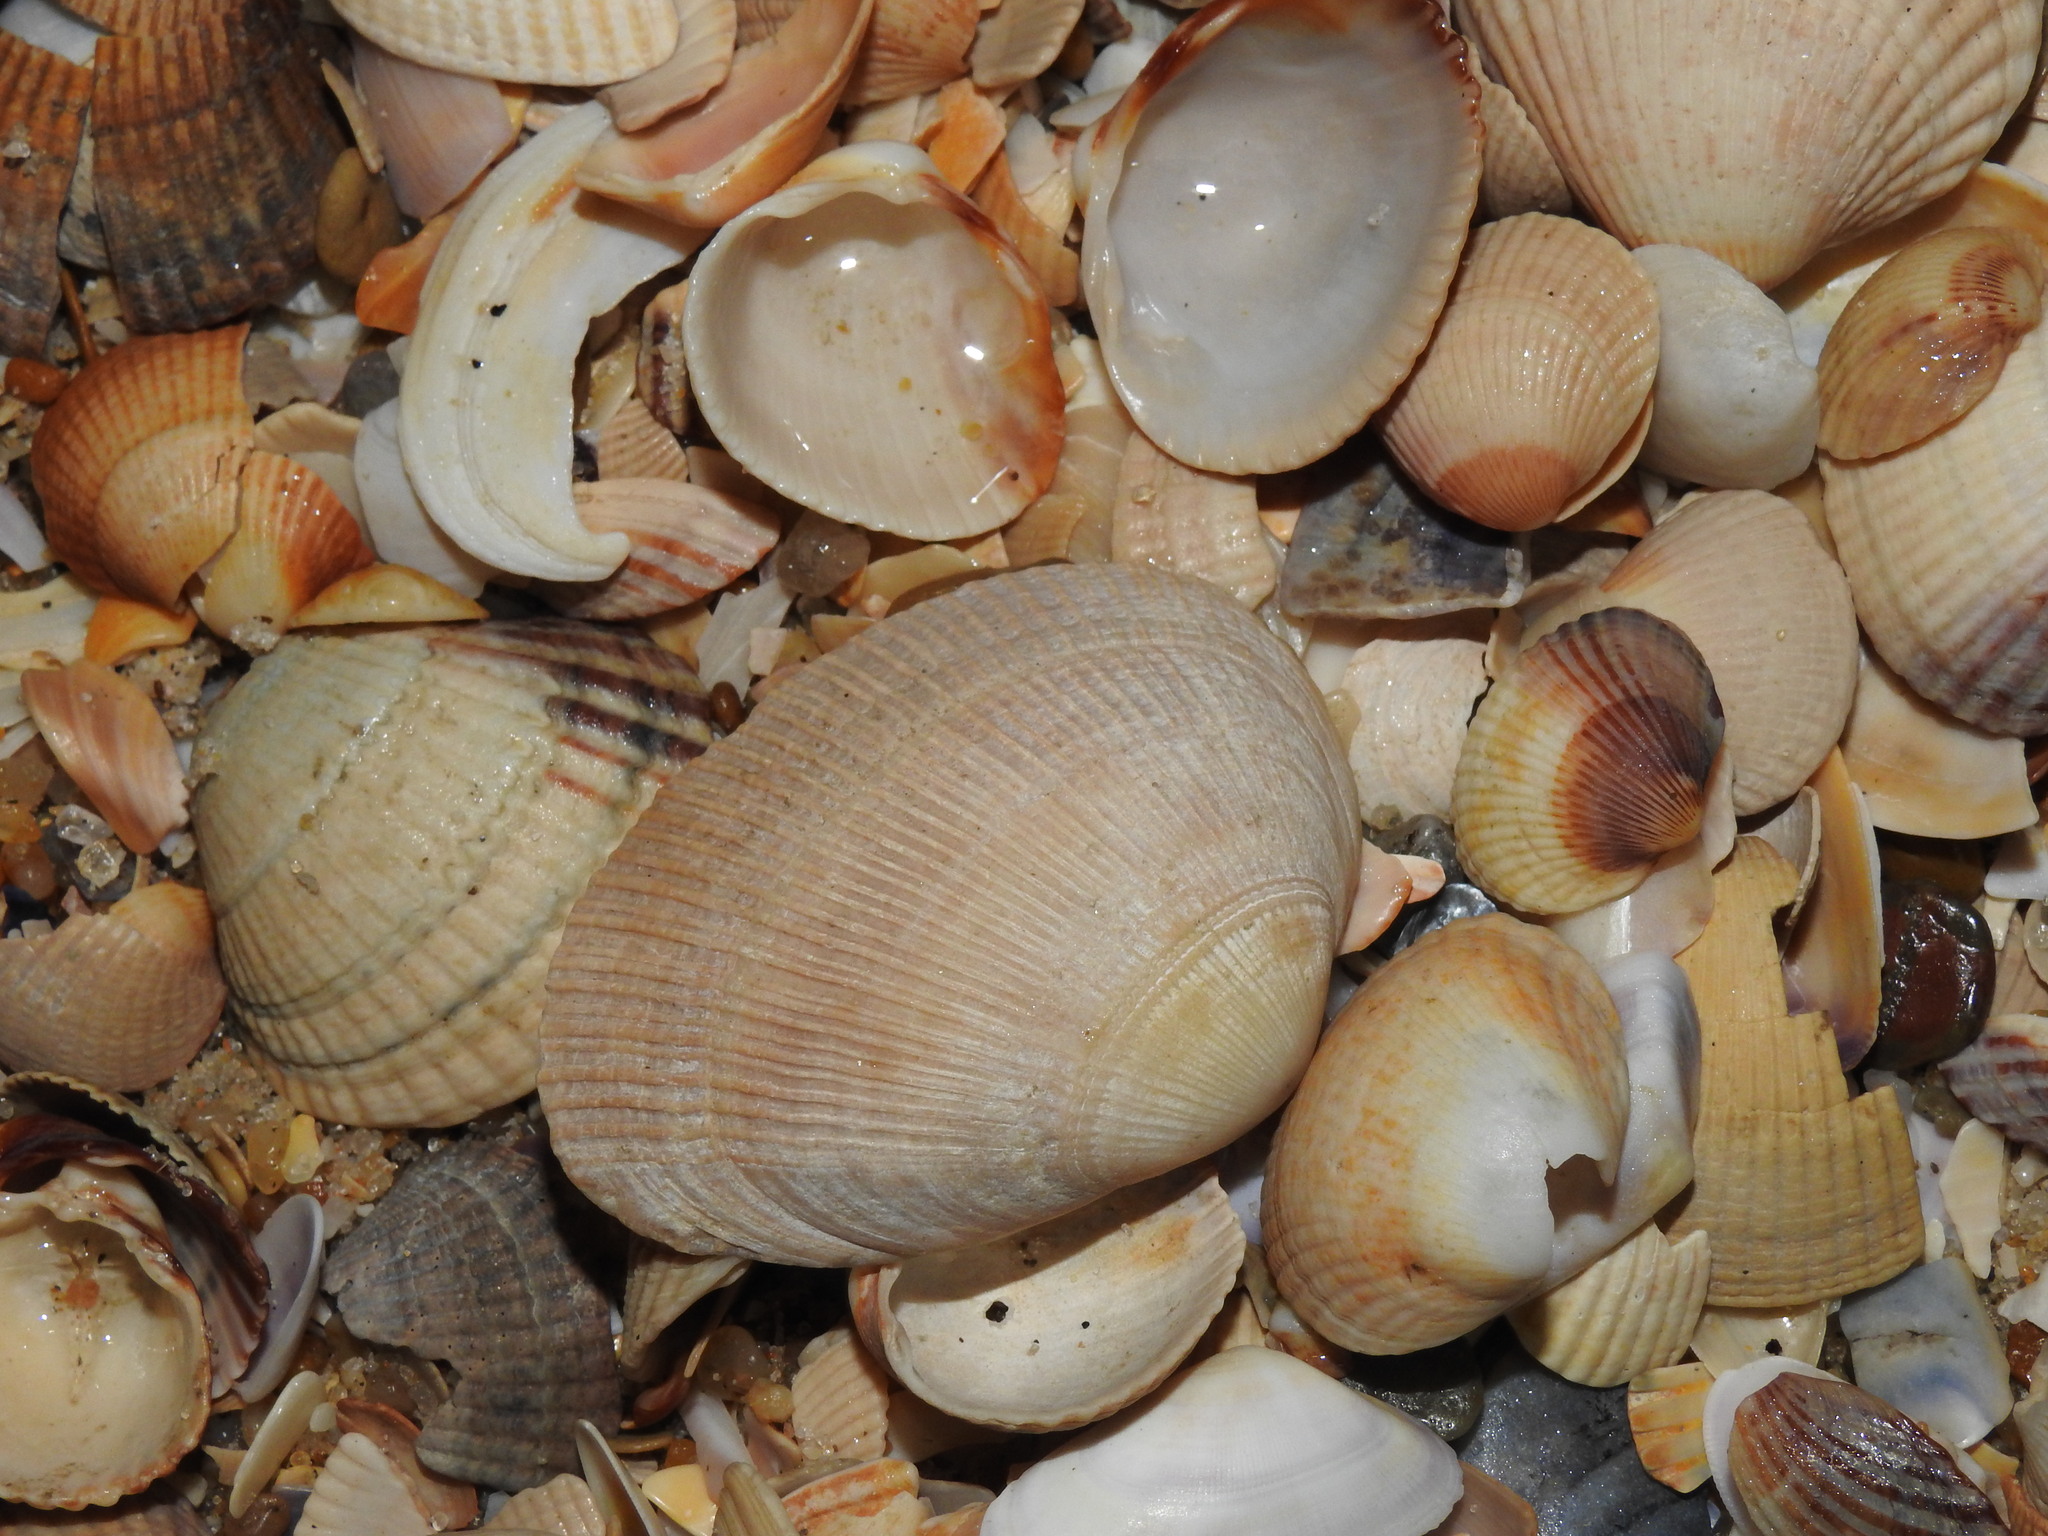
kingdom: Animalia
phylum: Mollusca
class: Bivalvia
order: Venerida
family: Mactridae
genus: Eastonia
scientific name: Eastonia rugosa
